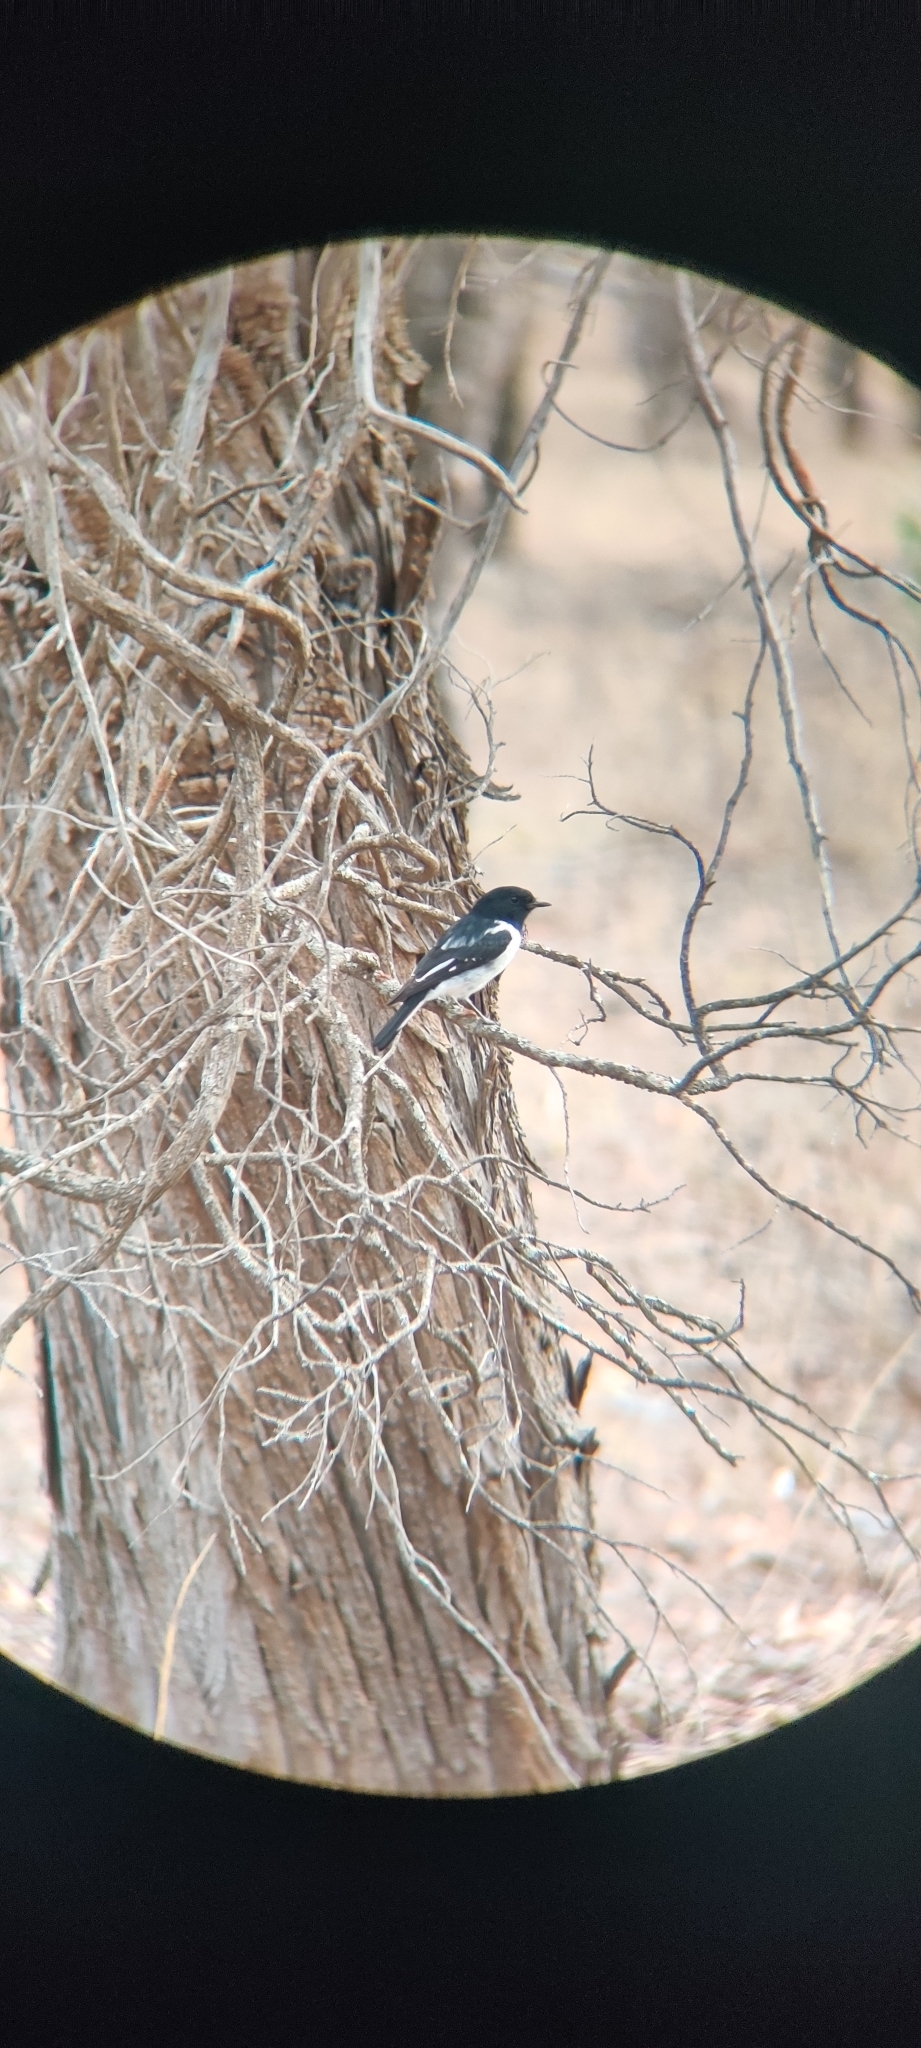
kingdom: Animalia
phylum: Chordata
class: Aves
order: Passeriformes
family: Petroicidae
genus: Melanodryas
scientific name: Melanodryas cucullata
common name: Hooded robin
